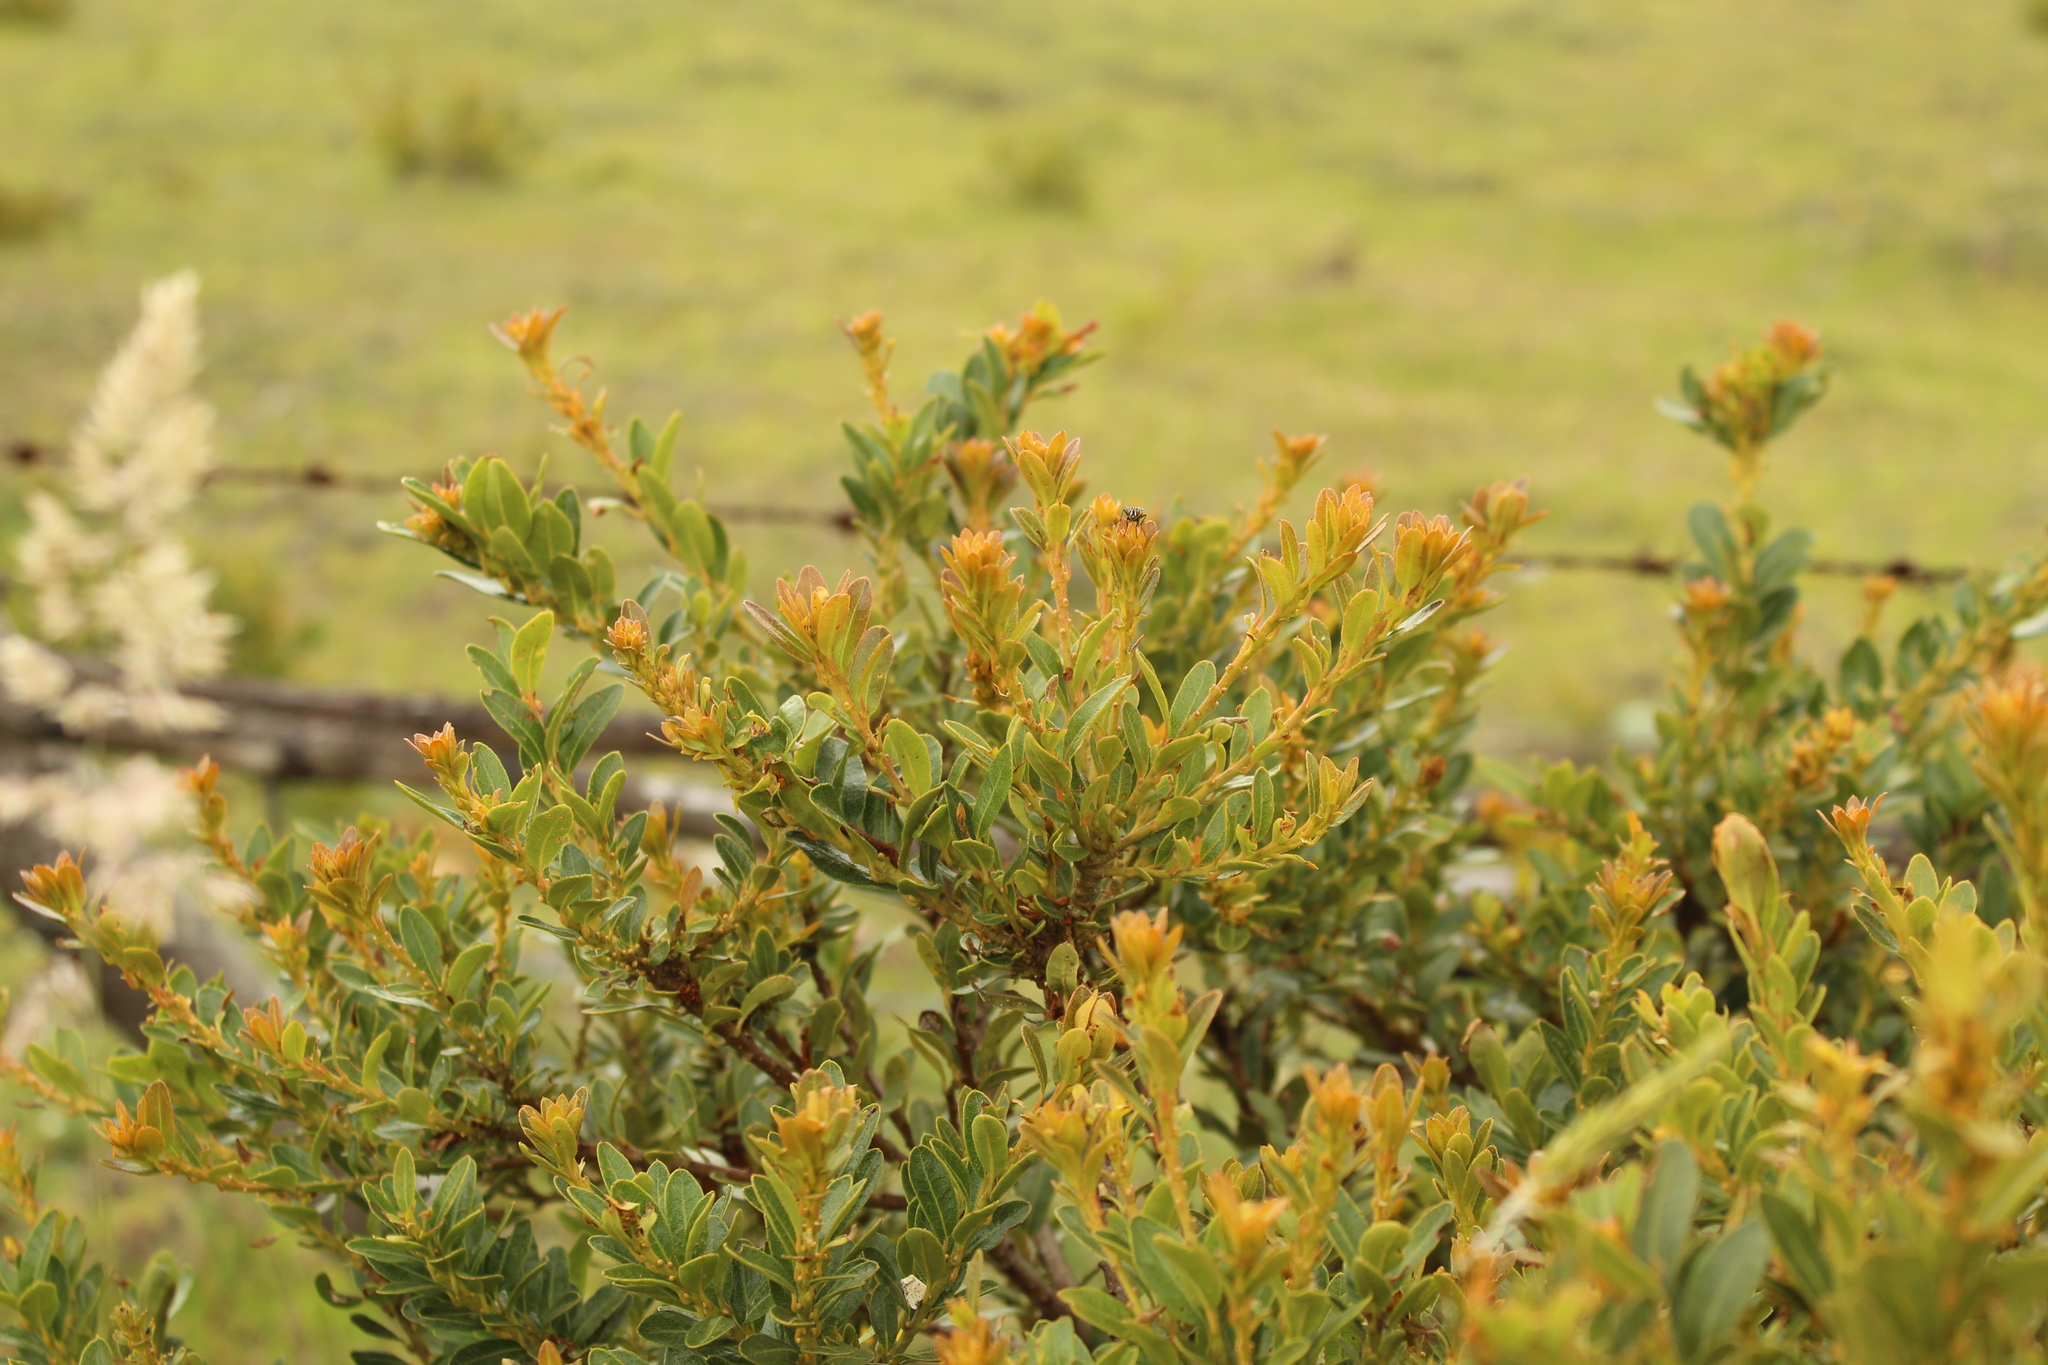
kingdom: Plantae
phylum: Tracheophyta
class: Magnoliopsida
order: Fagales
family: Myricaceae
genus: Morella
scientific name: Morella parvifolia
